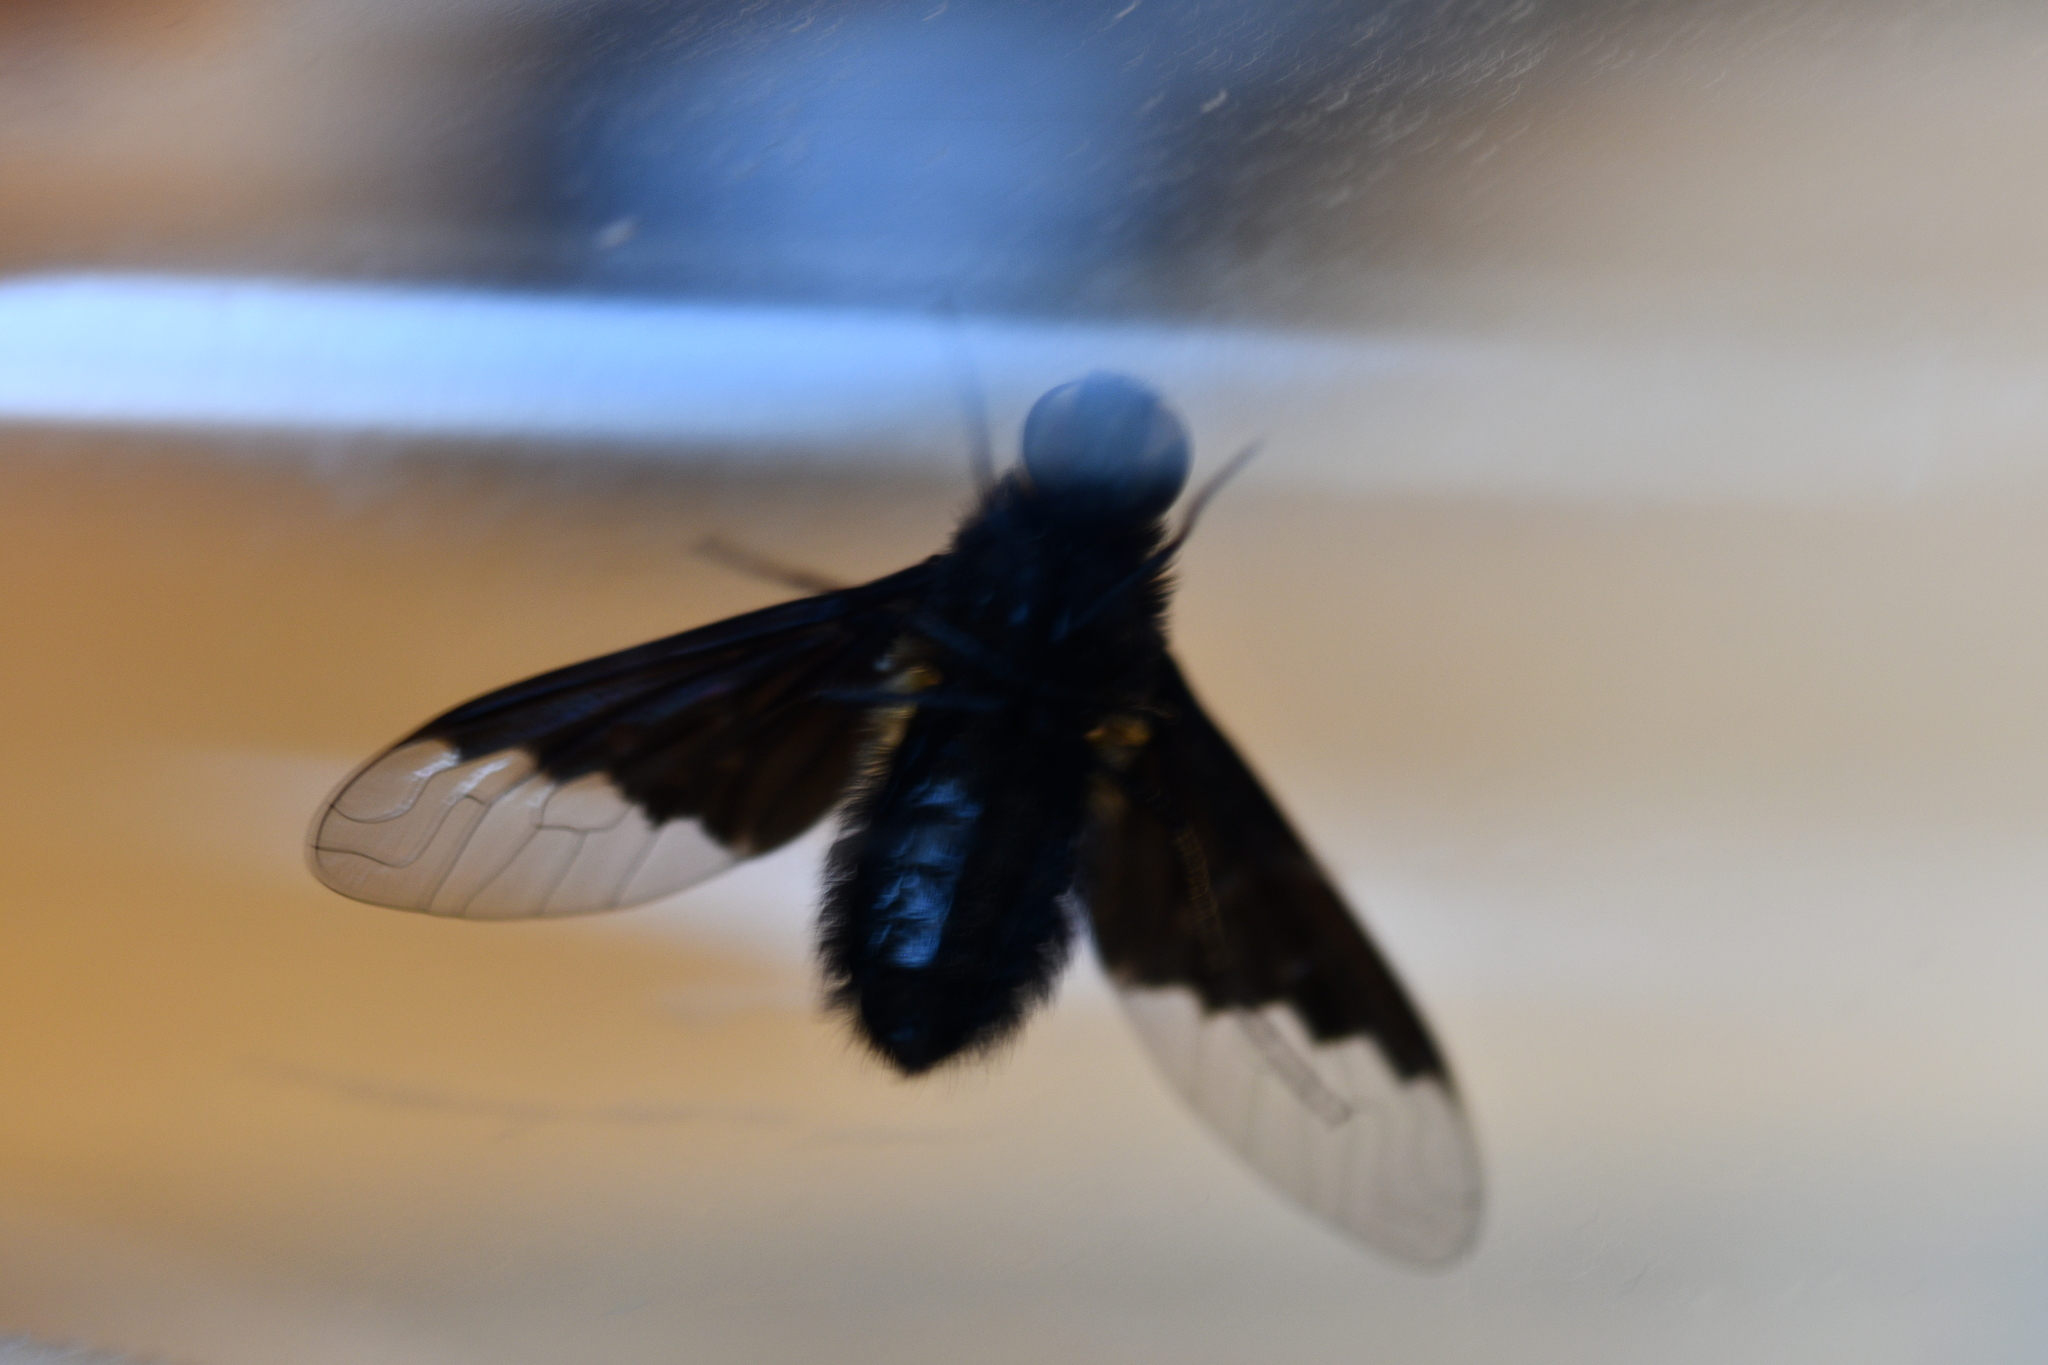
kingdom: Animalia
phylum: Arthropoda
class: Insecta
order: Diptera
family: Bombyliidae
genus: Hemipenthes
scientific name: Hemipenthes morio
